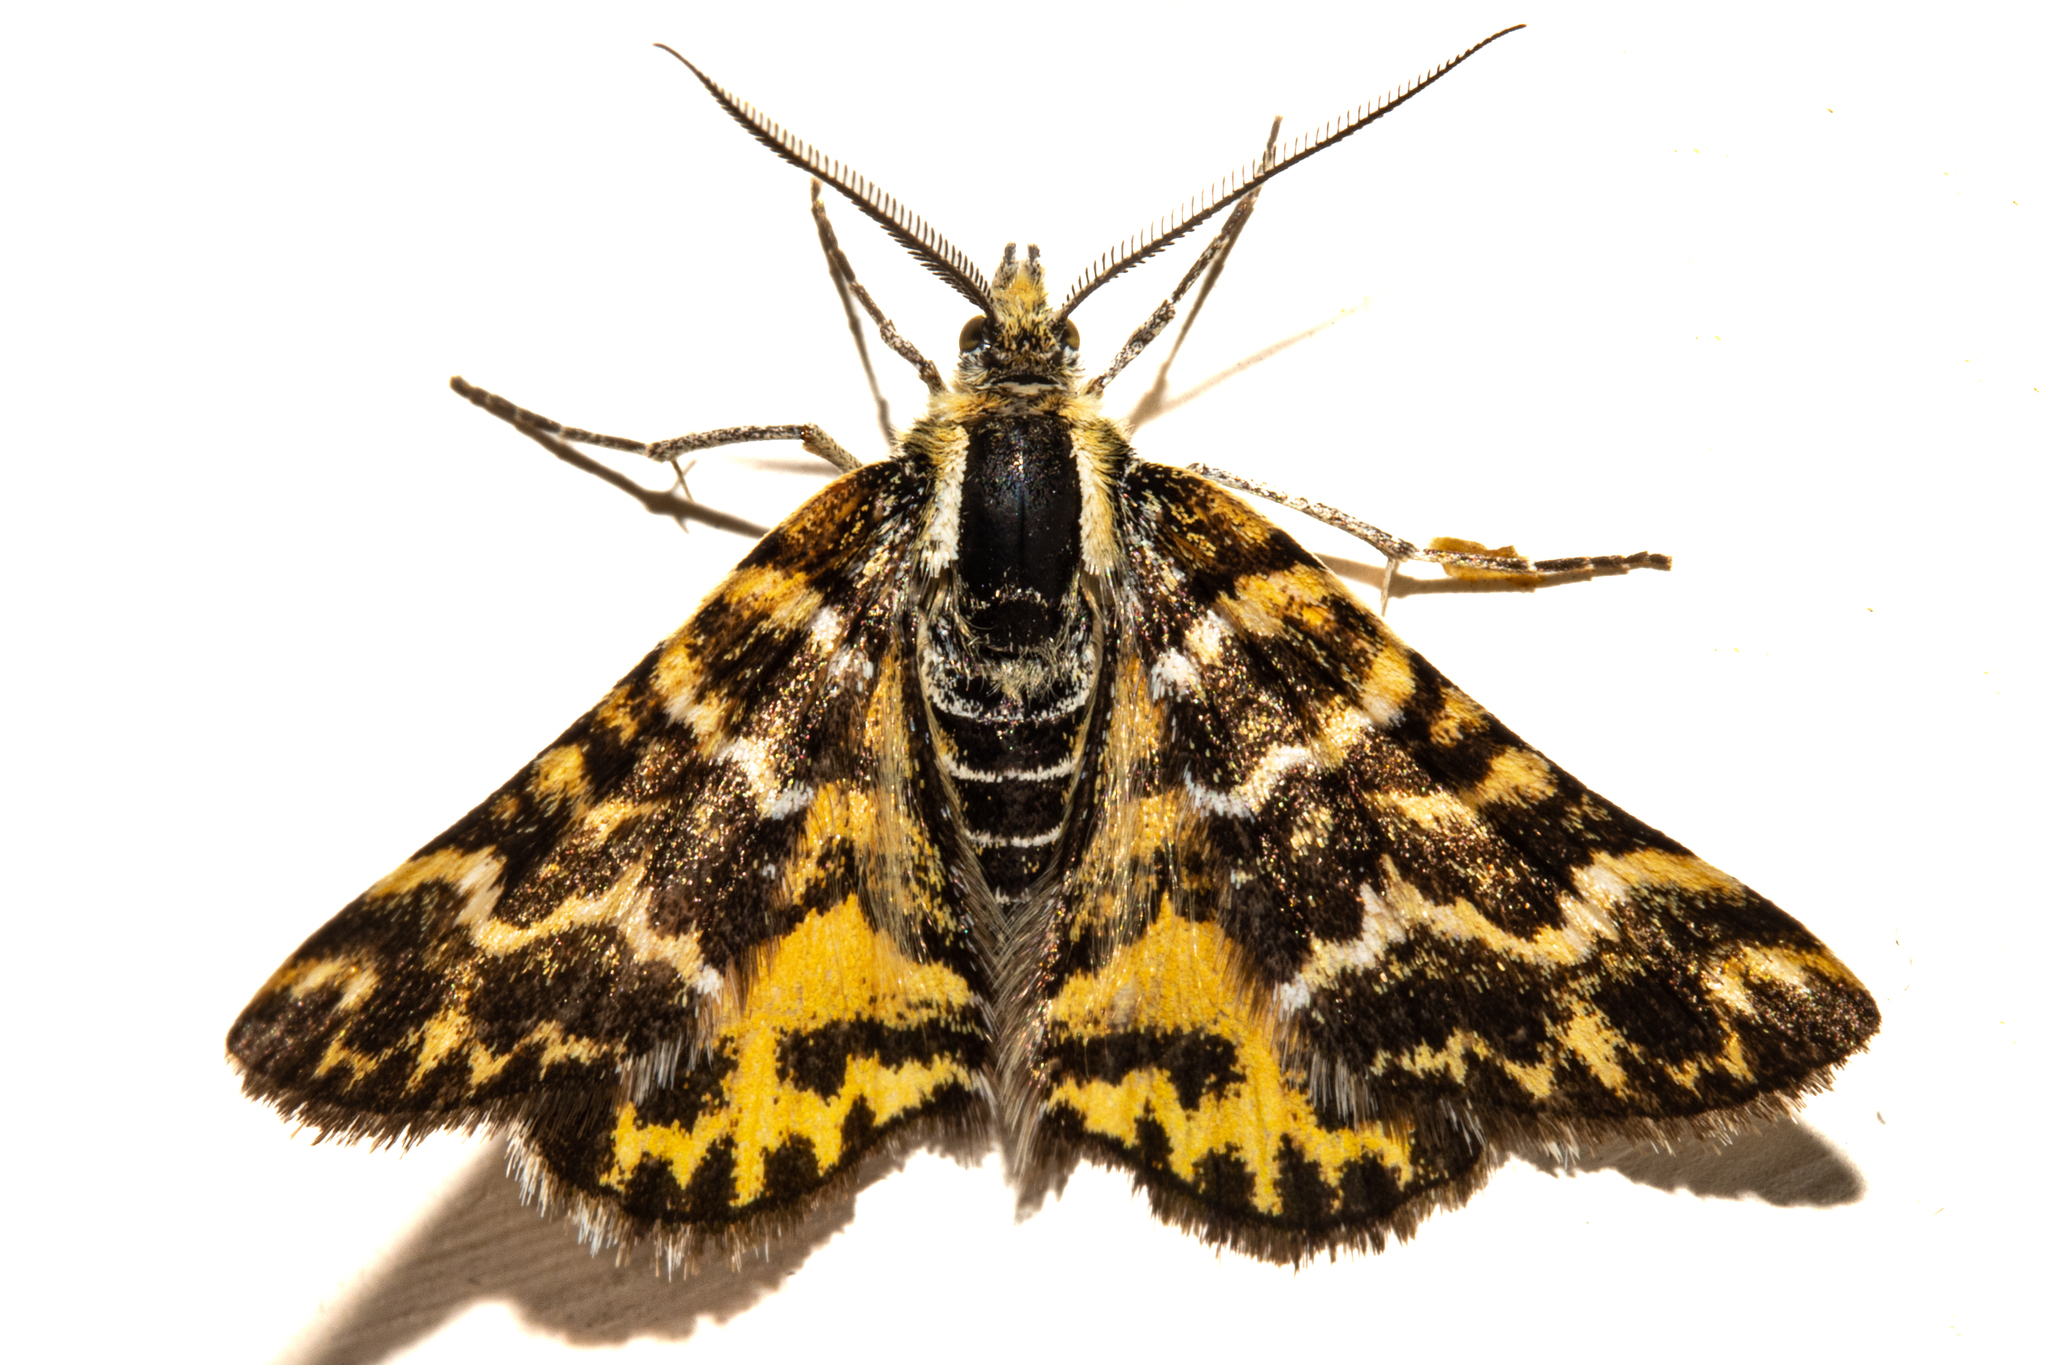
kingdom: Animalia
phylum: Arthropoda
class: Insecta
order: Lepidoptera
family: Geometridae
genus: Notoreas
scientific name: Notoreas
